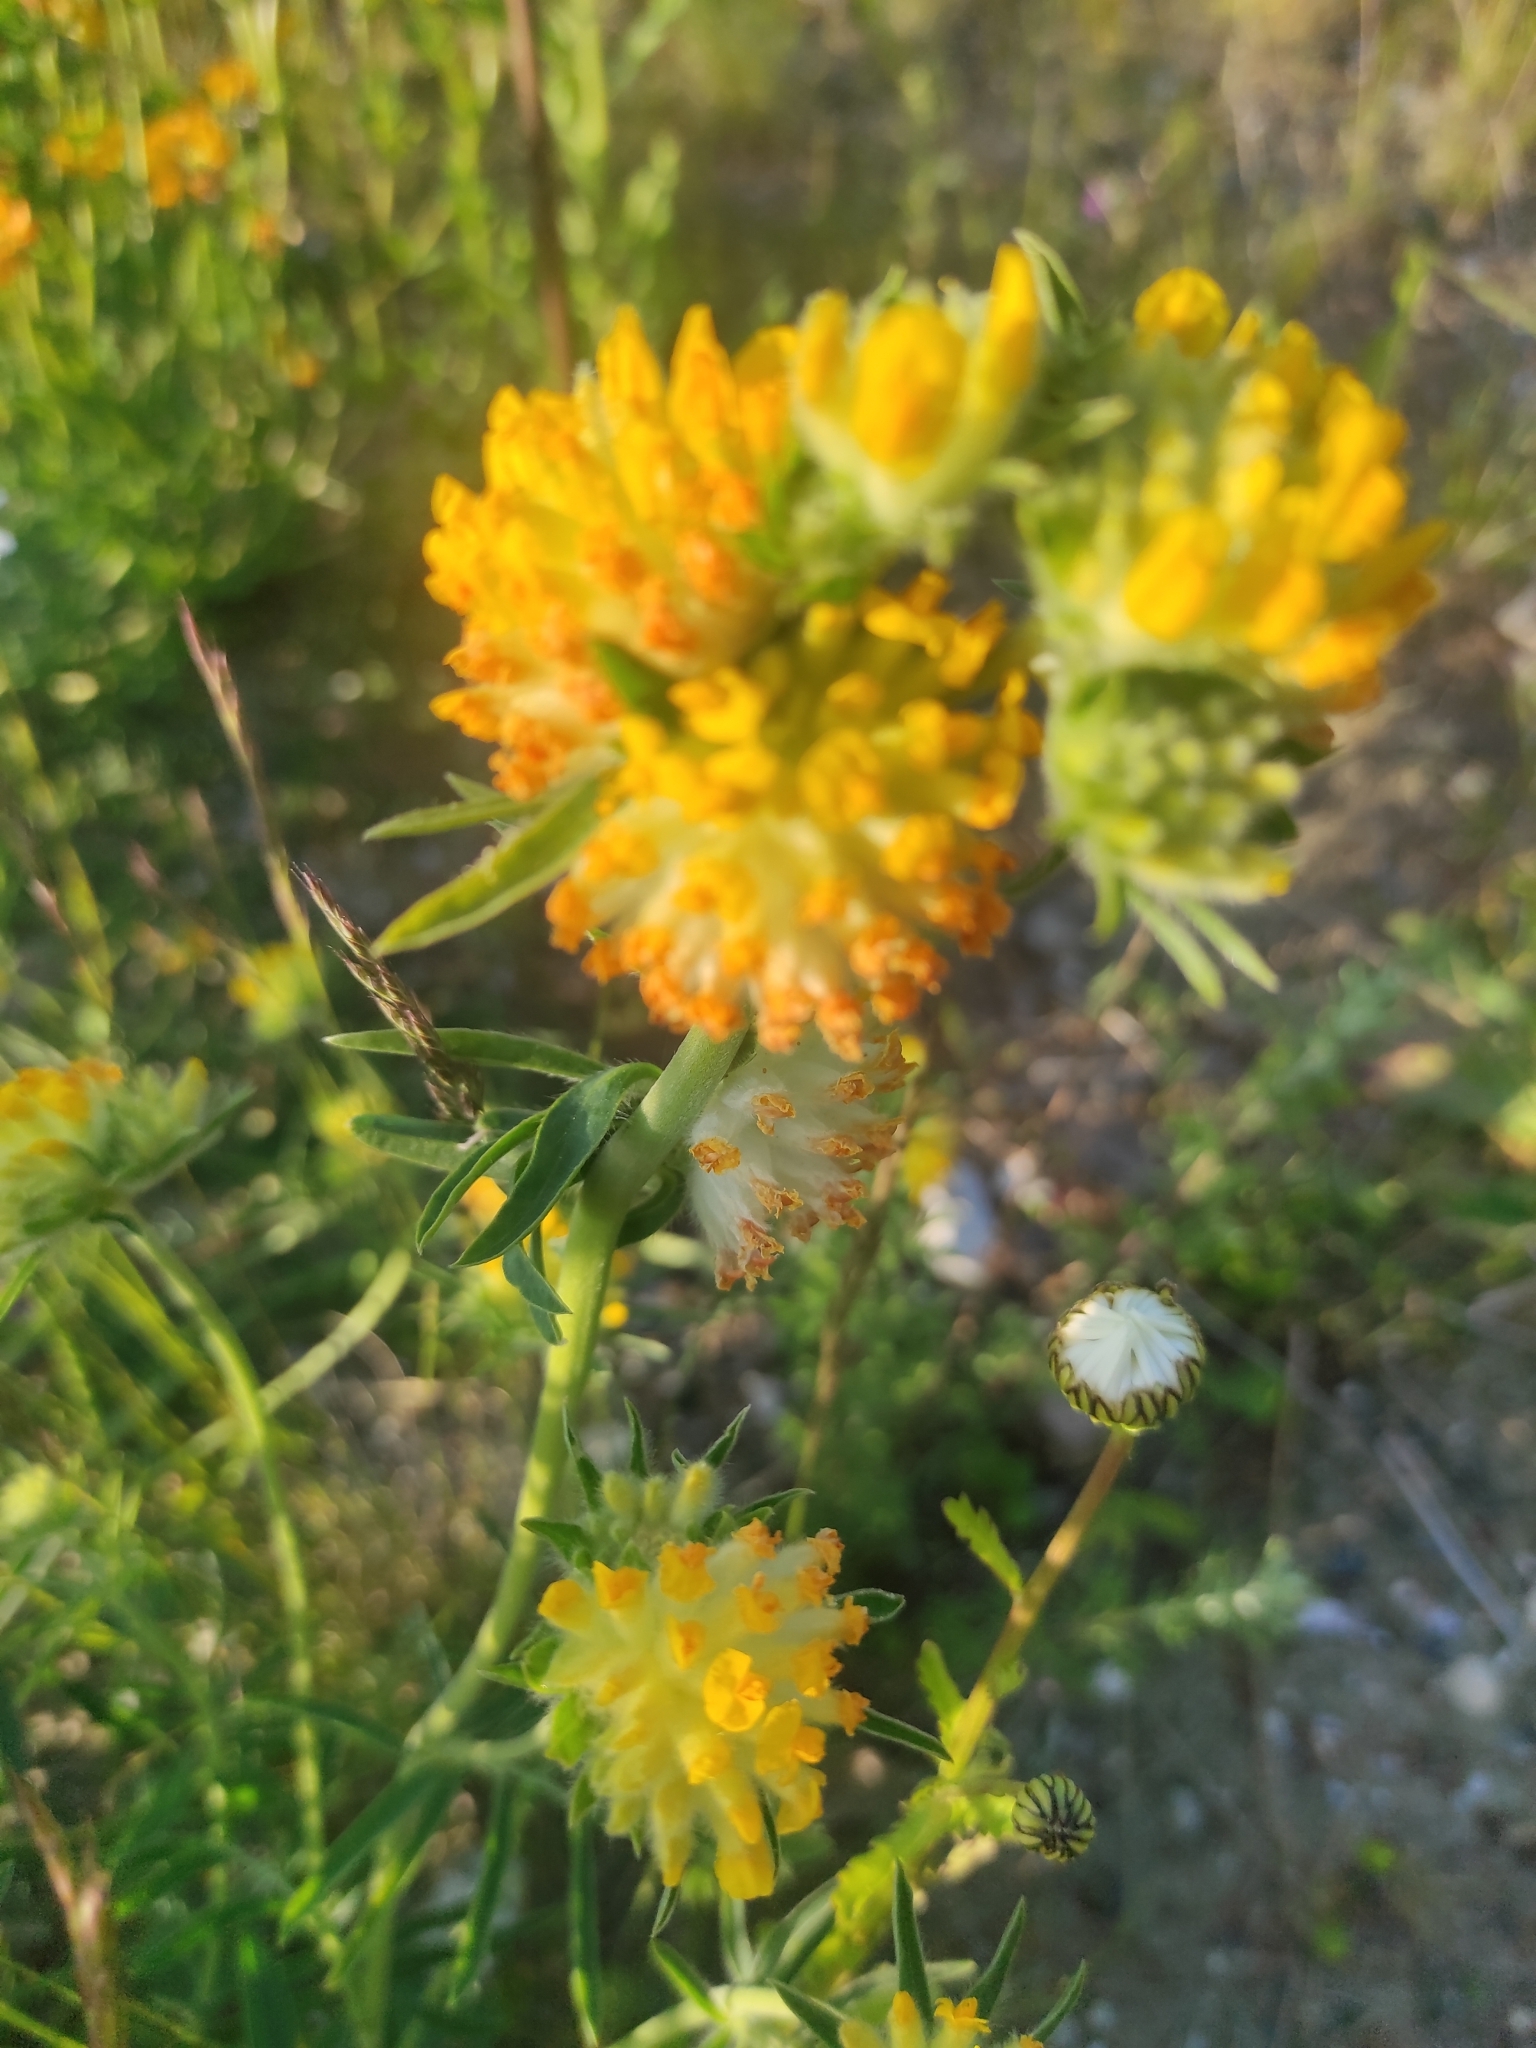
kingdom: Plantae
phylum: Tracheophyta
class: Magnoliopsida
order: Fabales
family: Fabaceae
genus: Anthyllis
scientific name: Anthyllis vulneraria
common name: Kidney vetch
